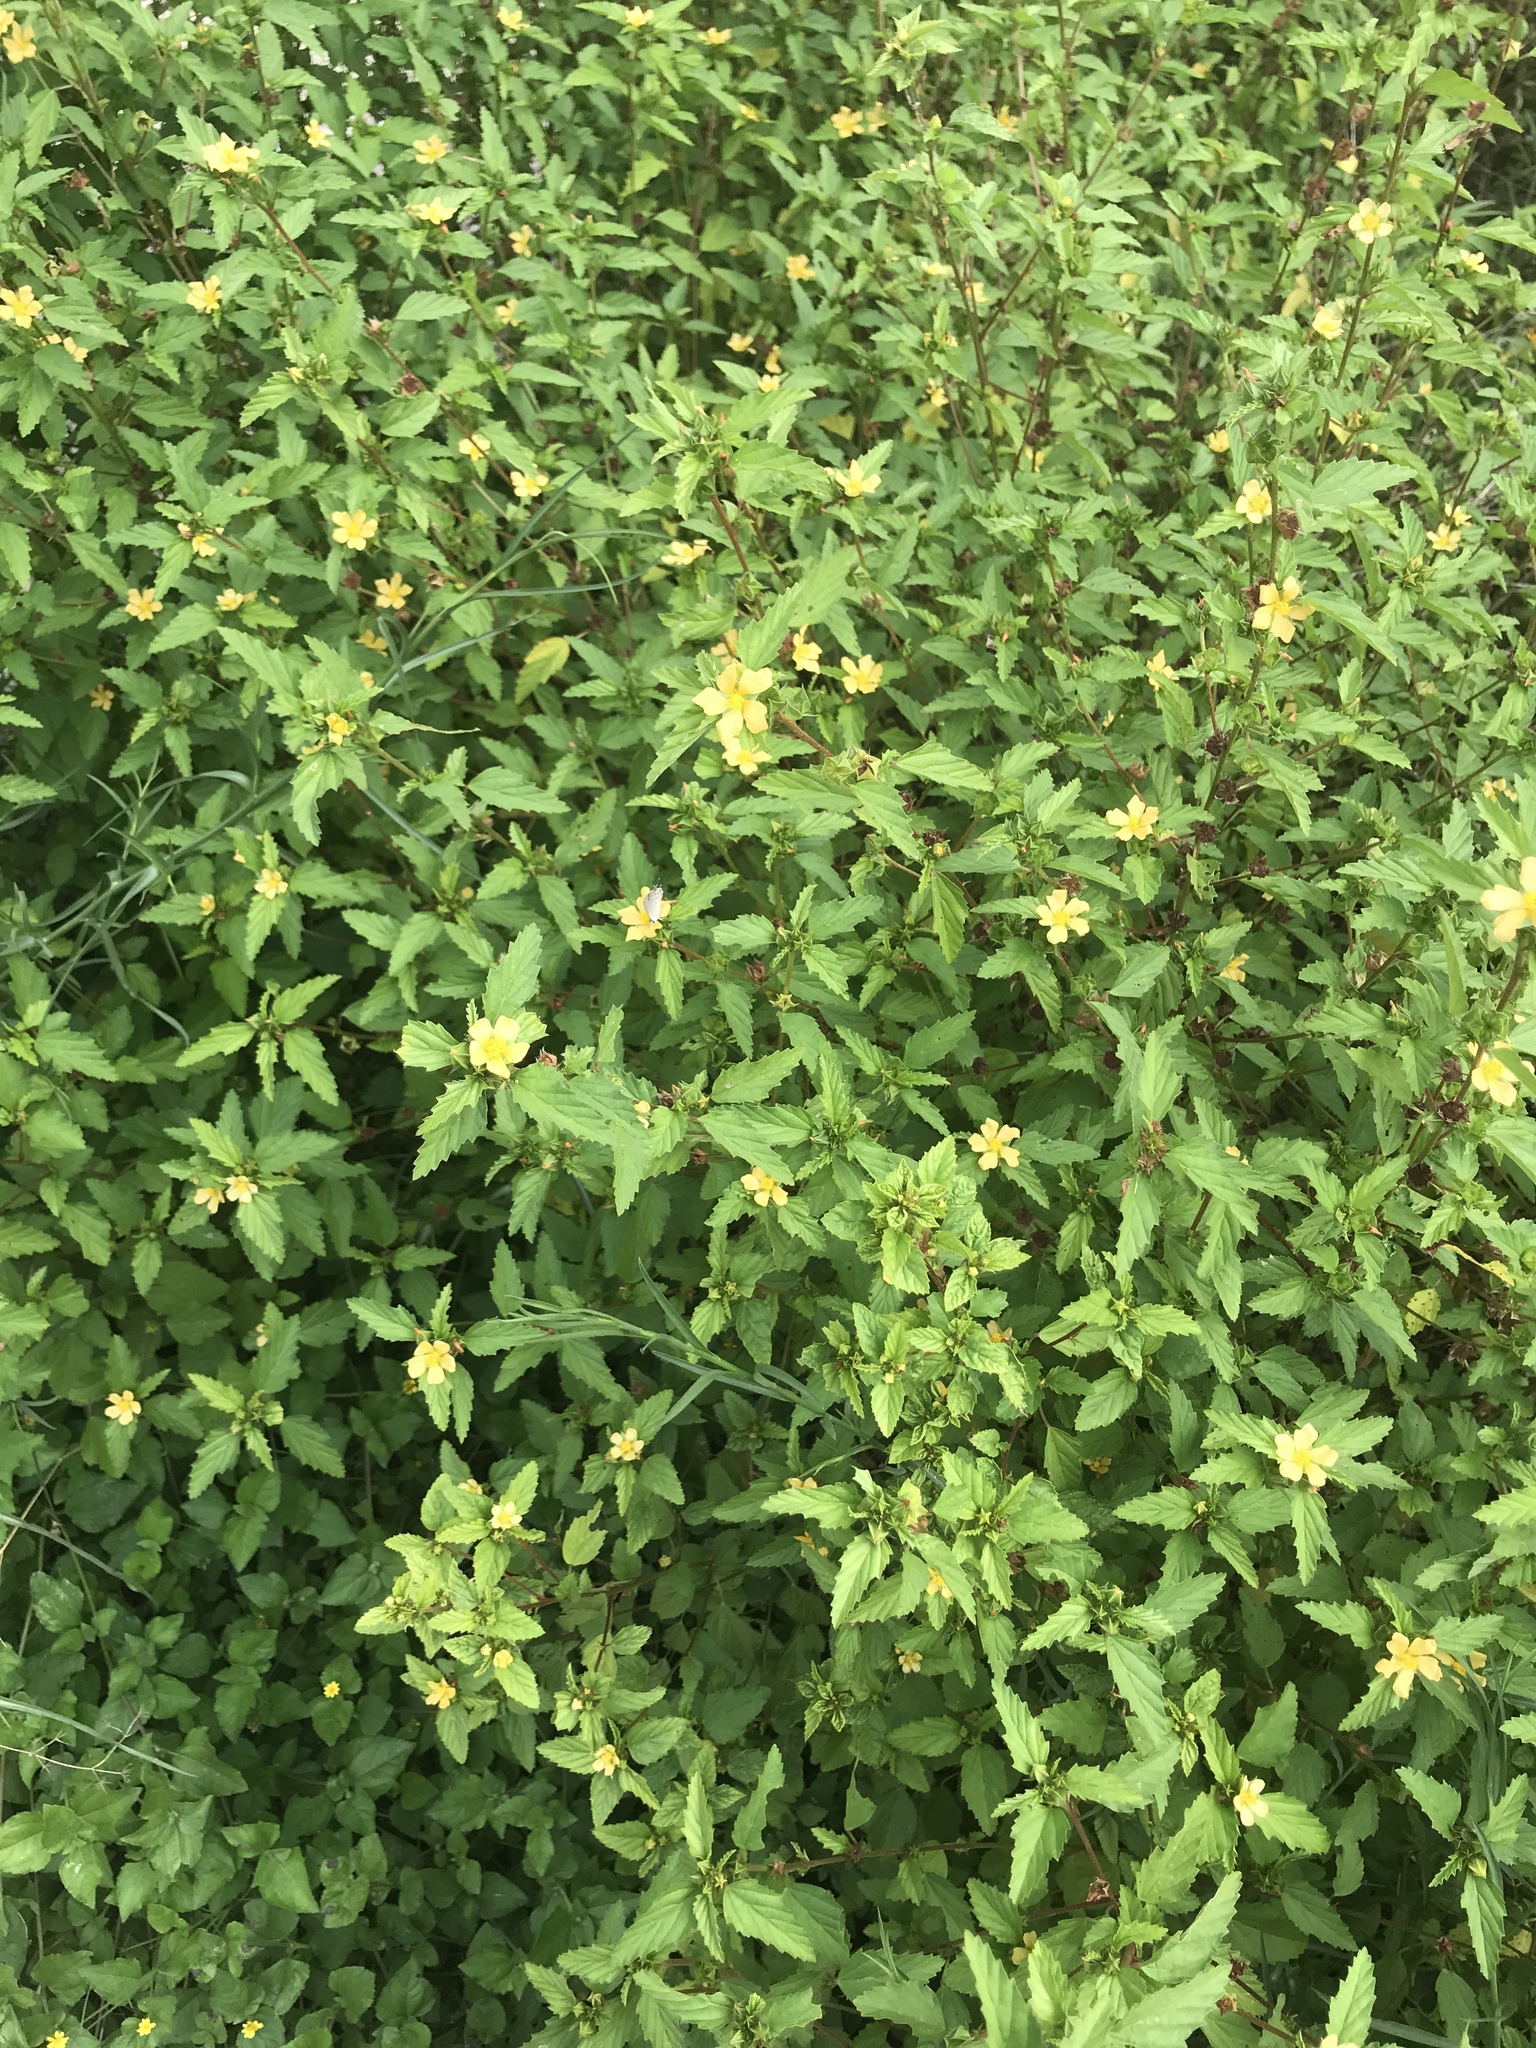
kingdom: Plantae
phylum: Tracheophyta
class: Magnoliopsida
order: Malvales
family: Malvaceae
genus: Malvastrum
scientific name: Malvastrum coromandelianum
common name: Threelobe false mallow
